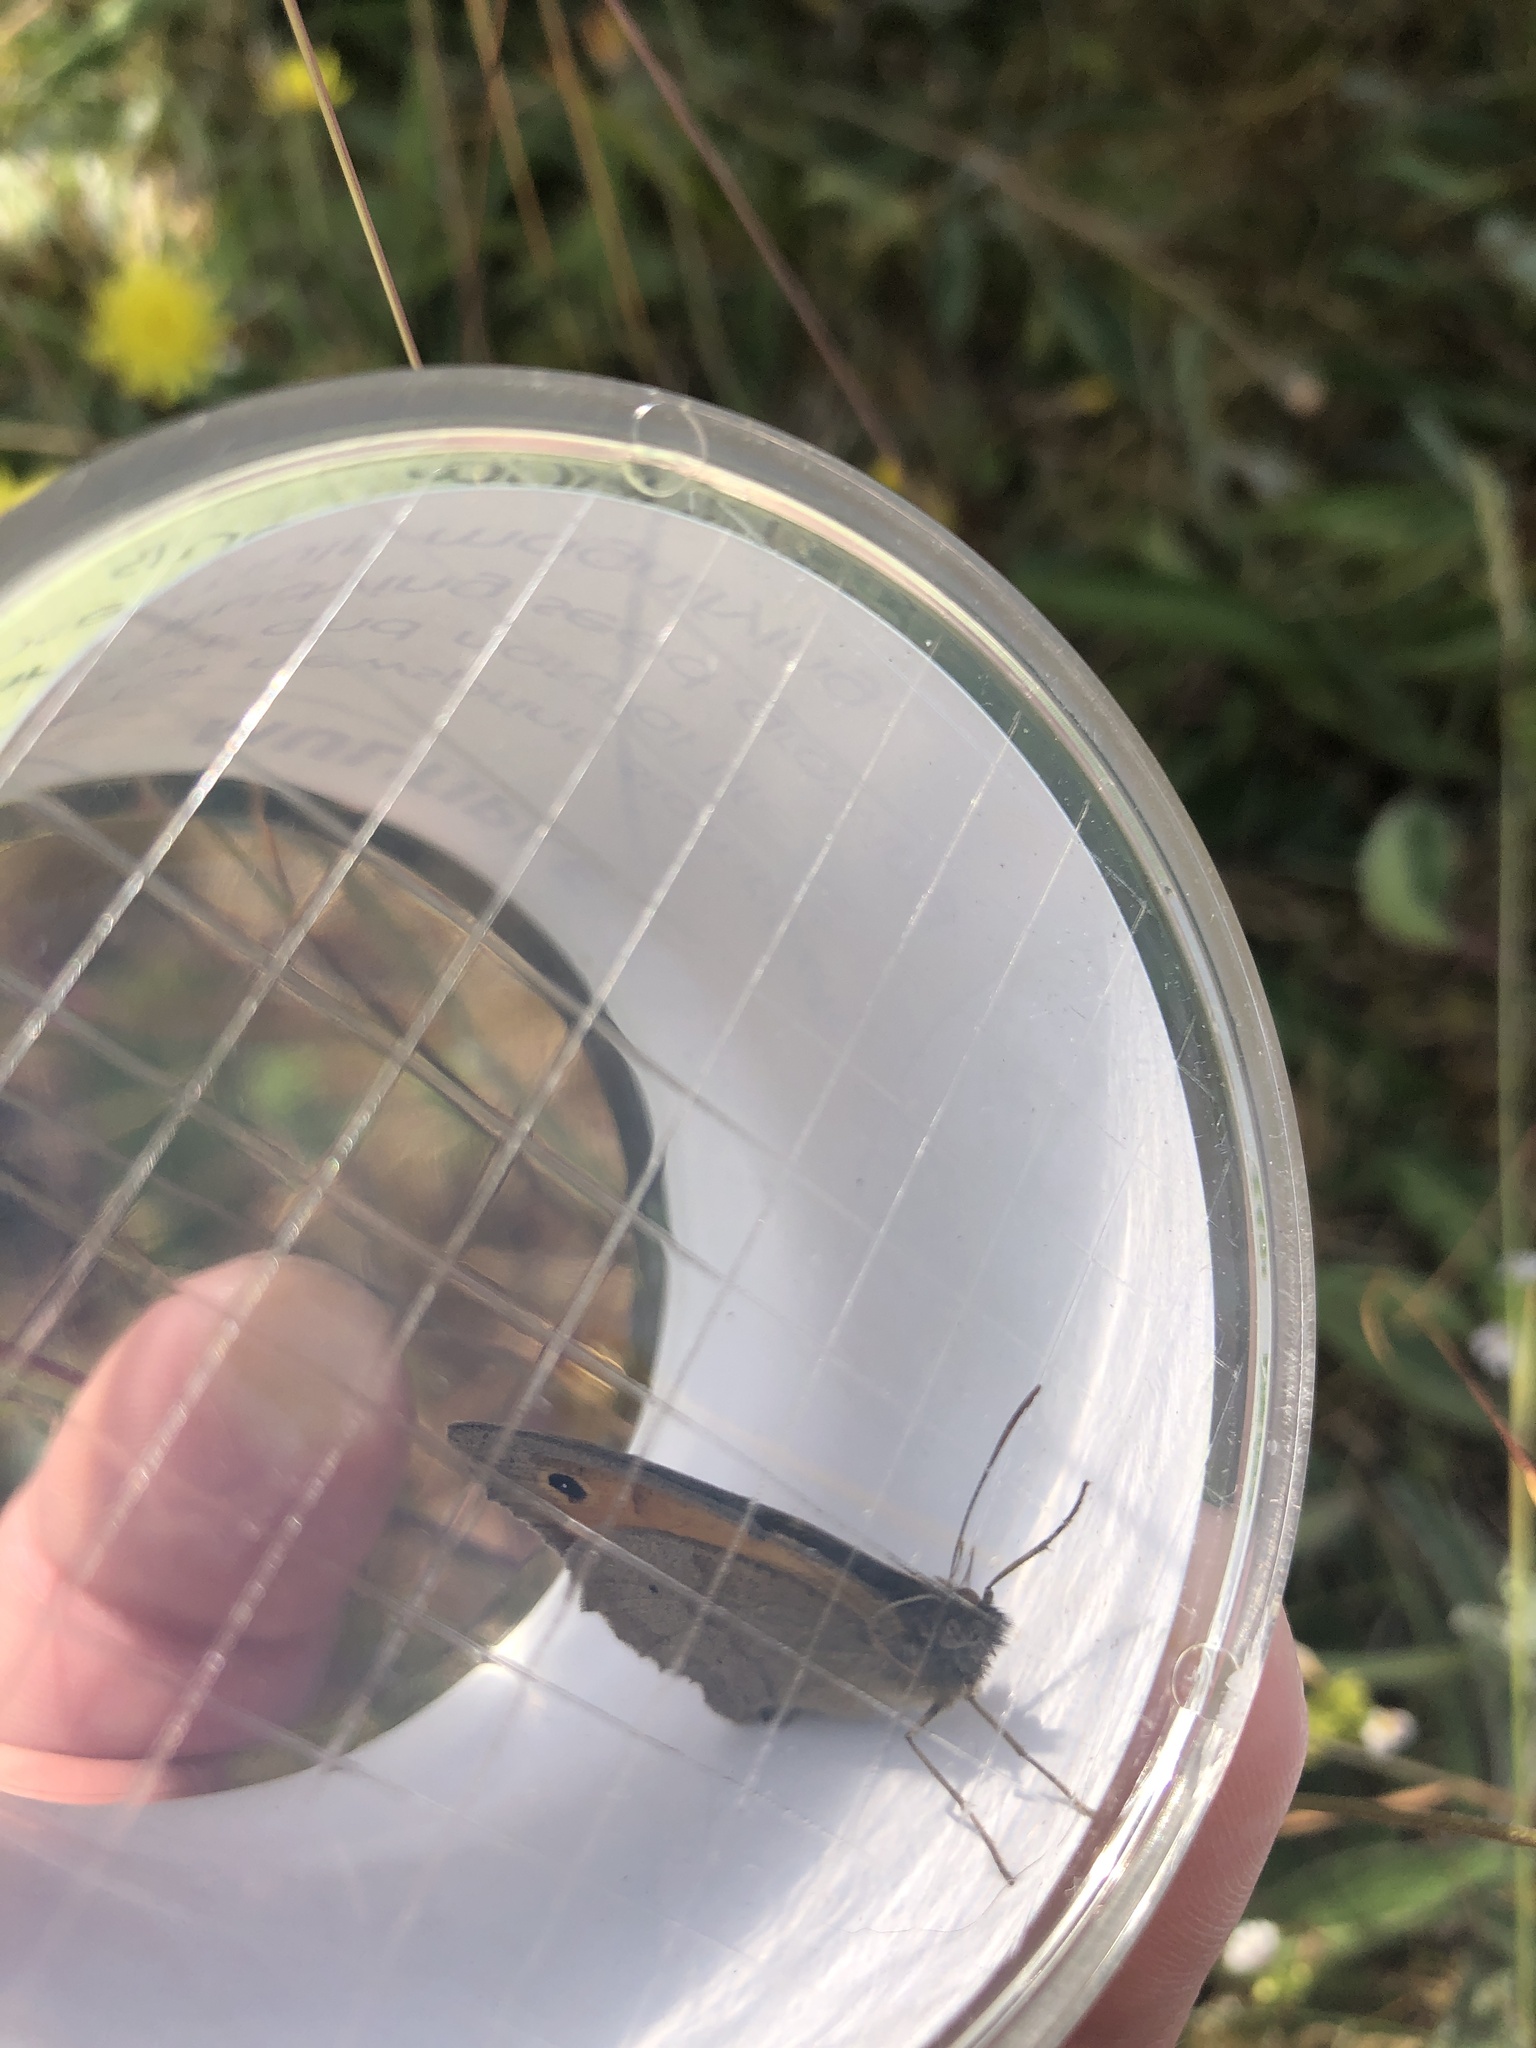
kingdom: Animalia
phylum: Arthropoda
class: Insecta
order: Lepidoptera
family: Nymphalidae
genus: Maniola
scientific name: Maniola jurtina
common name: Meadow brown
